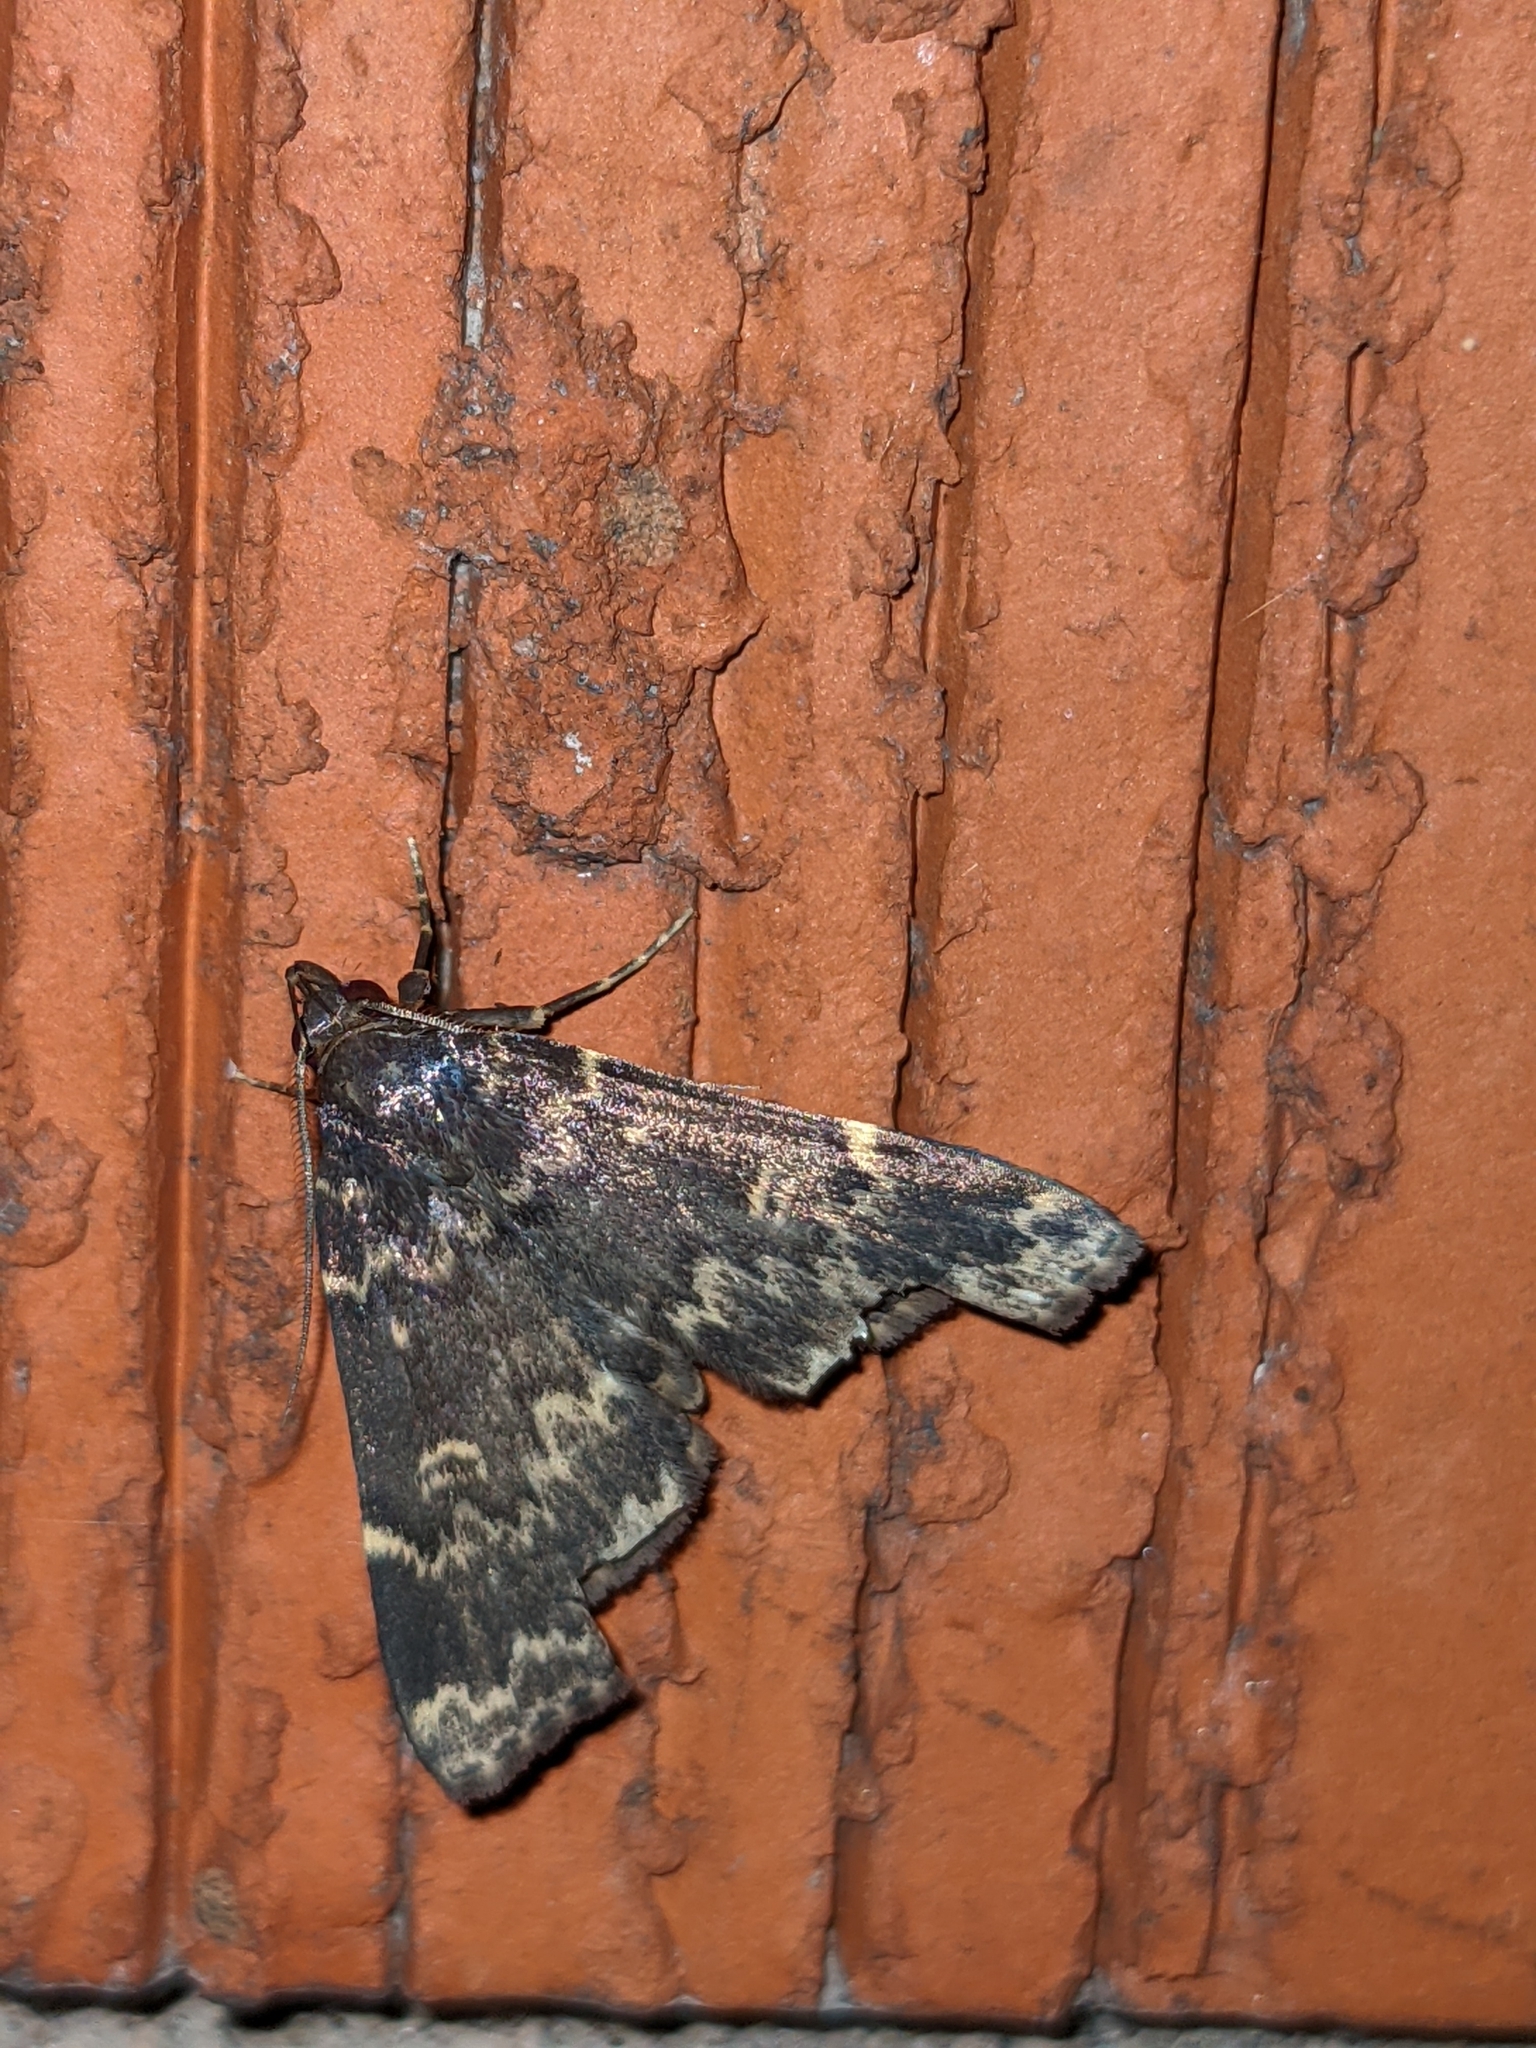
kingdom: Animalia
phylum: Arthropoda
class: Insecta
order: Lepidoptera
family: Erebidae
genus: Idia
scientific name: Idia lubricalis
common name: Twin-striped tabby
